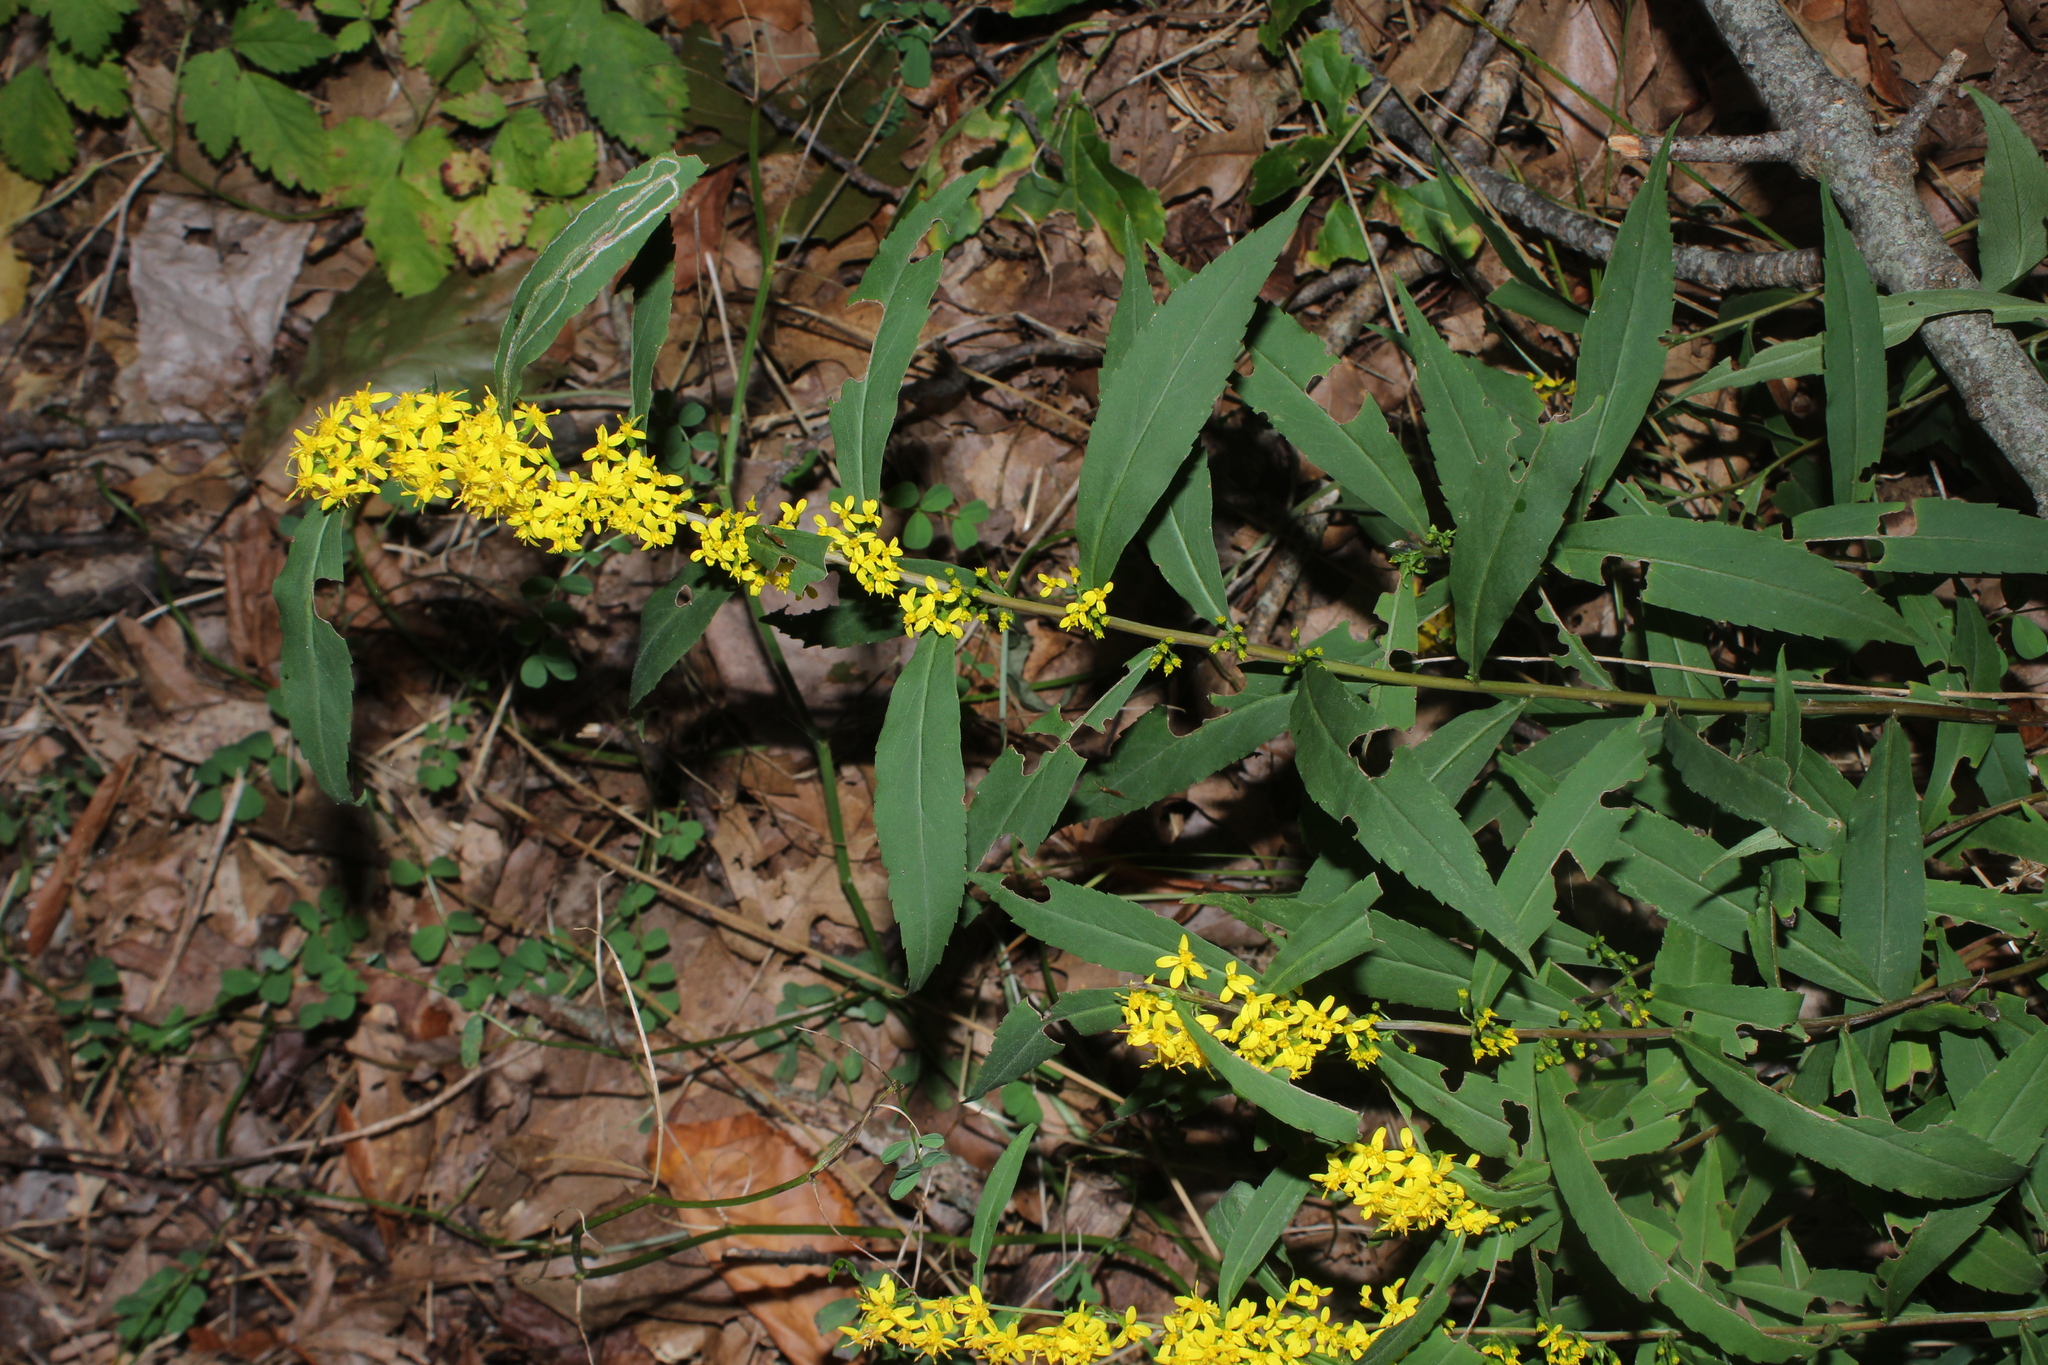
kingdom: Plantae
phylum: Tracheophyta
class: Magnoliopsida
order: Asterales
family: Asteraceae
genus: Solidago
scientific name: Solidago caesia
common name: Woodland goldenrod
